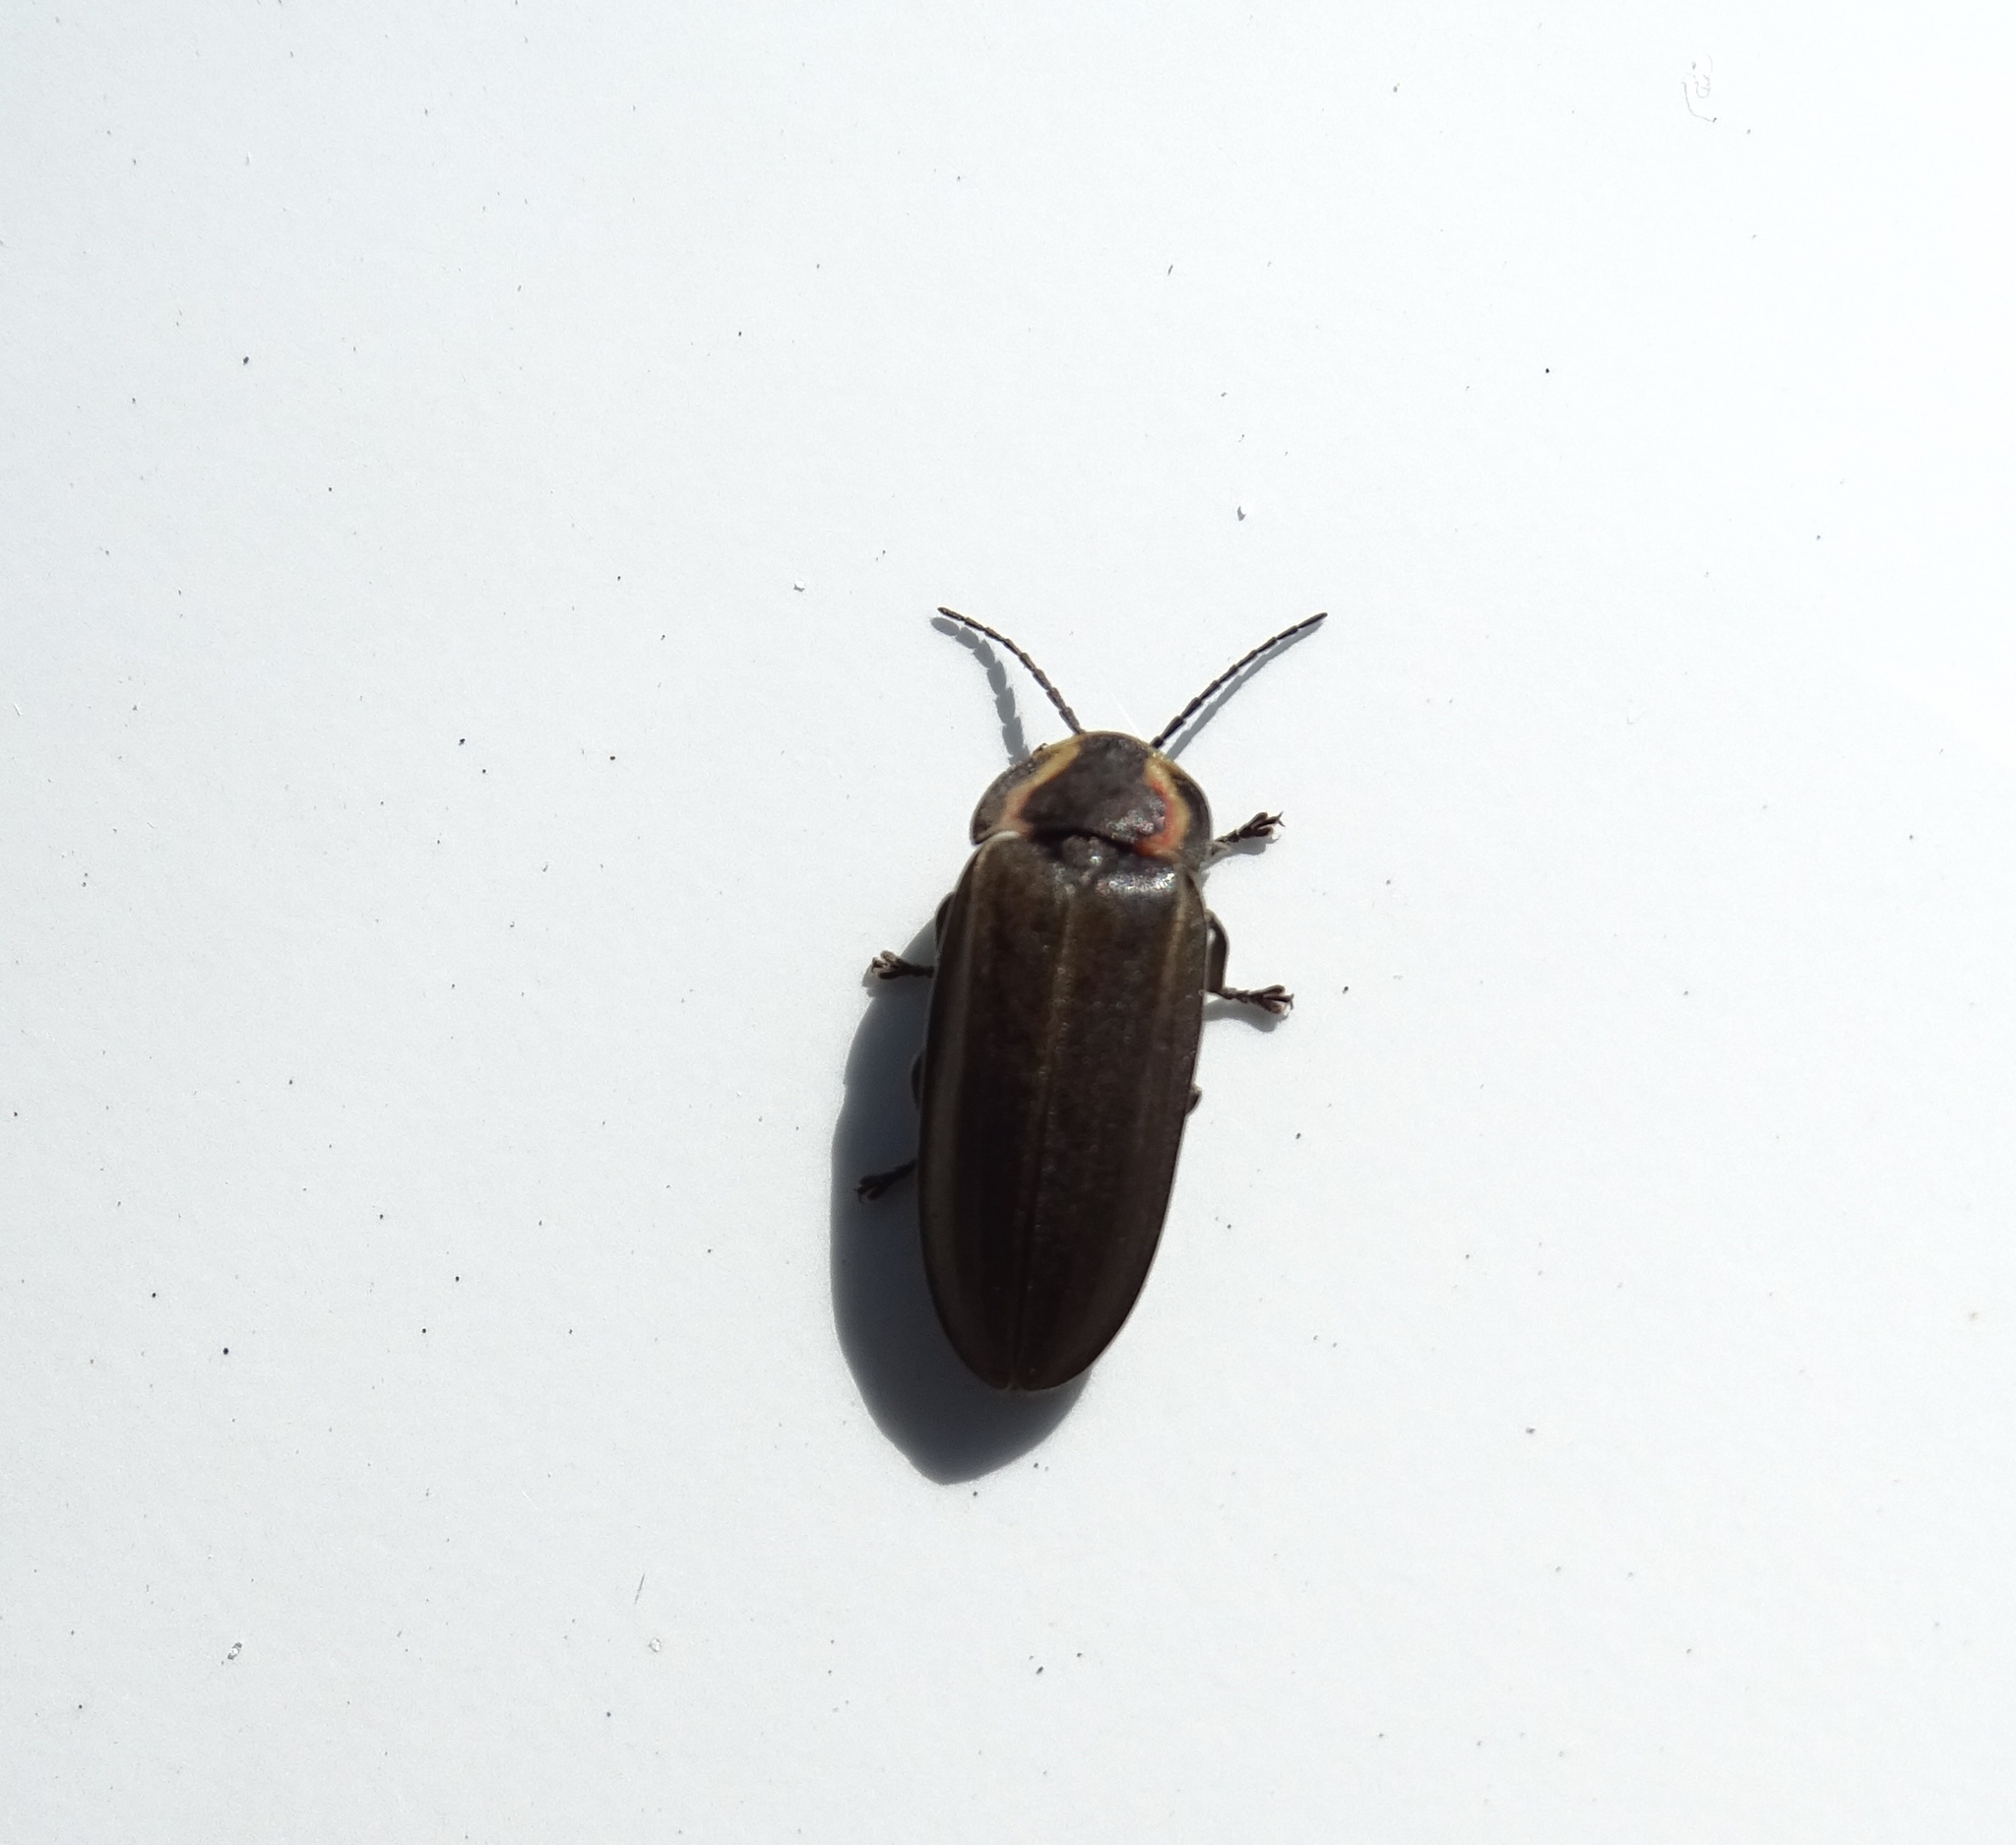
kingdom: Animalia
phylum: Arthropoda
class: Insecta
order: Coleoptera
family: Lampyridae
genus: Photinus
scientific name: Photinus corrusca
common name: Winter firefly
